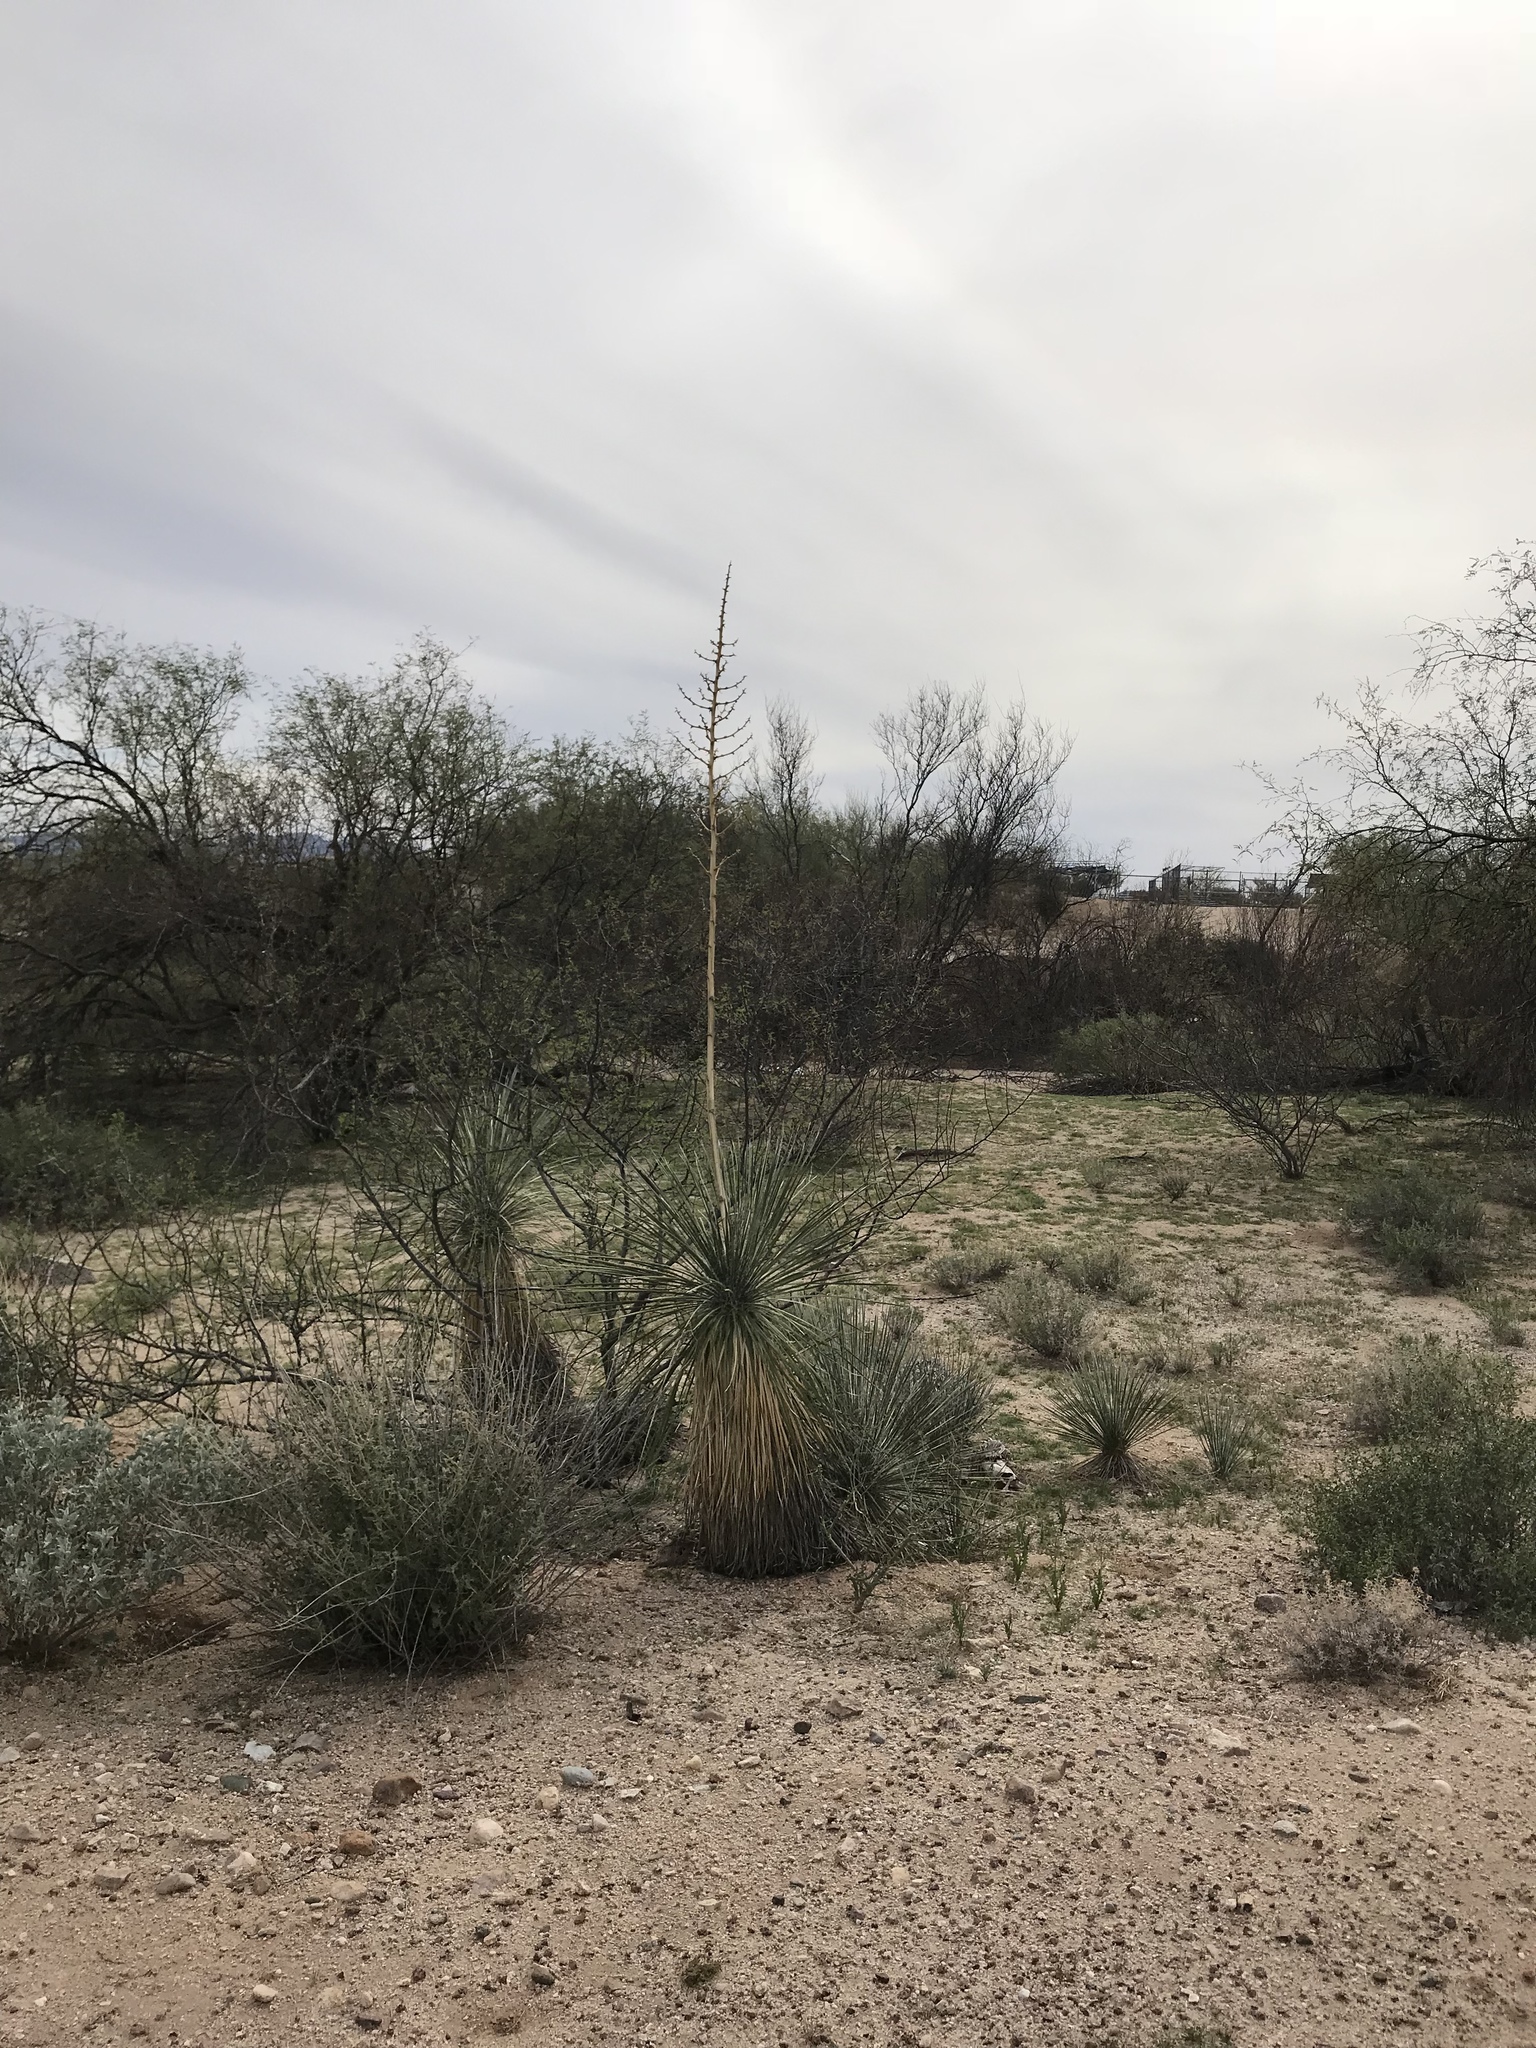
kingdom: Plantae
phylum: Tracheophyta
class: Liliopsida
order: Asparagales
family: Asparagaceae
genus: Yucca
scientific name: Yucca elata
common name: Palmella
